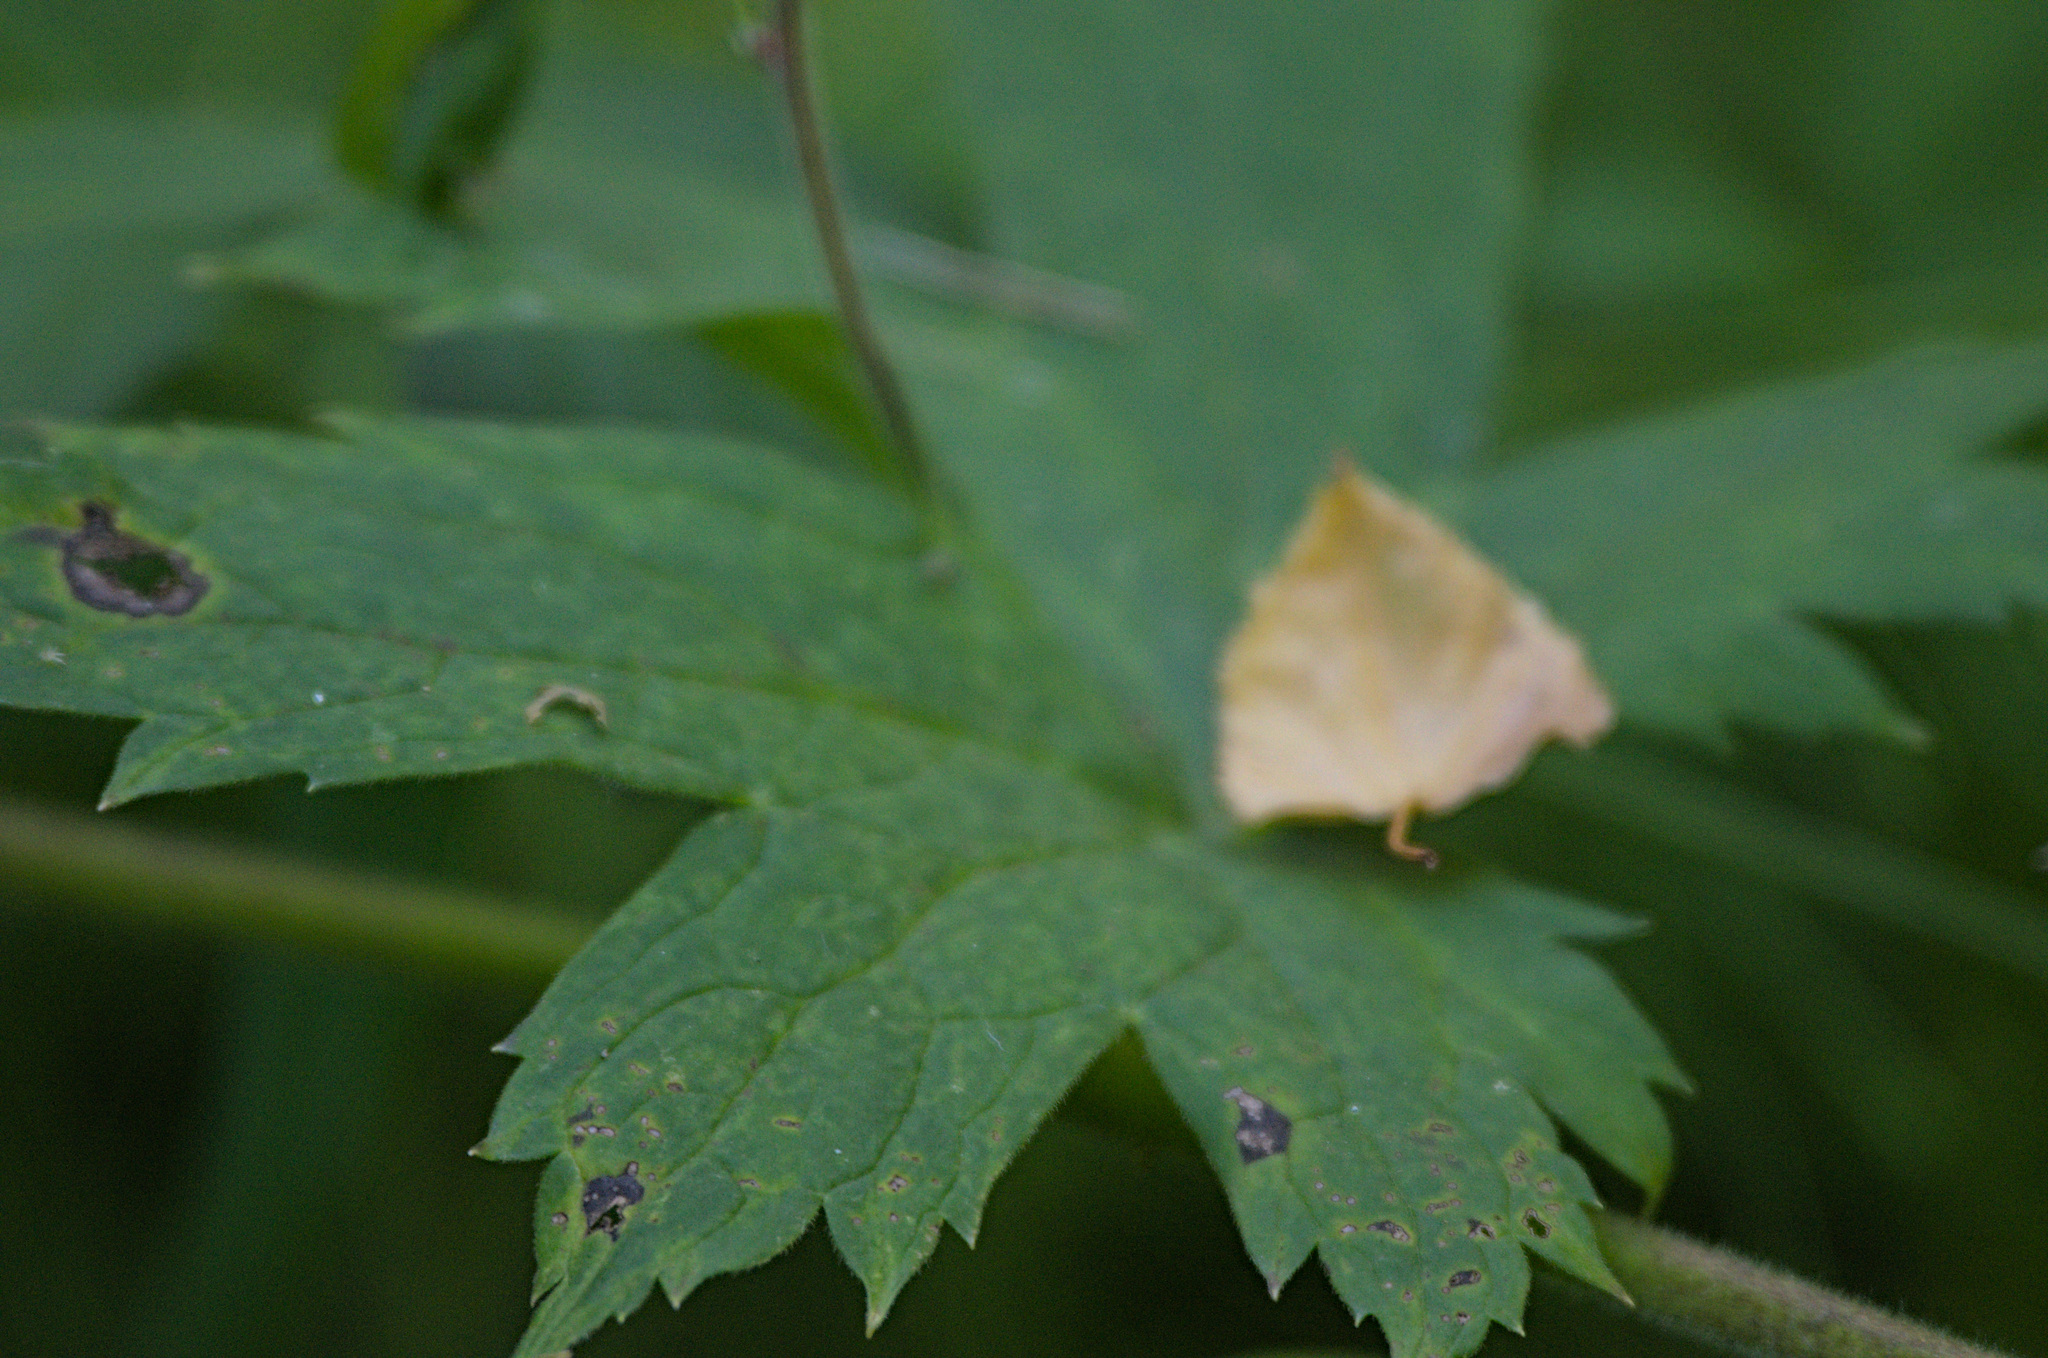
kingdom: Plantae
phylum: Tracheophyta
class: Magnoliopsida
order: Ranunculales
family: Ranunculaceae
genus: Aconitum
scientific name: Aconitum septentrionale
